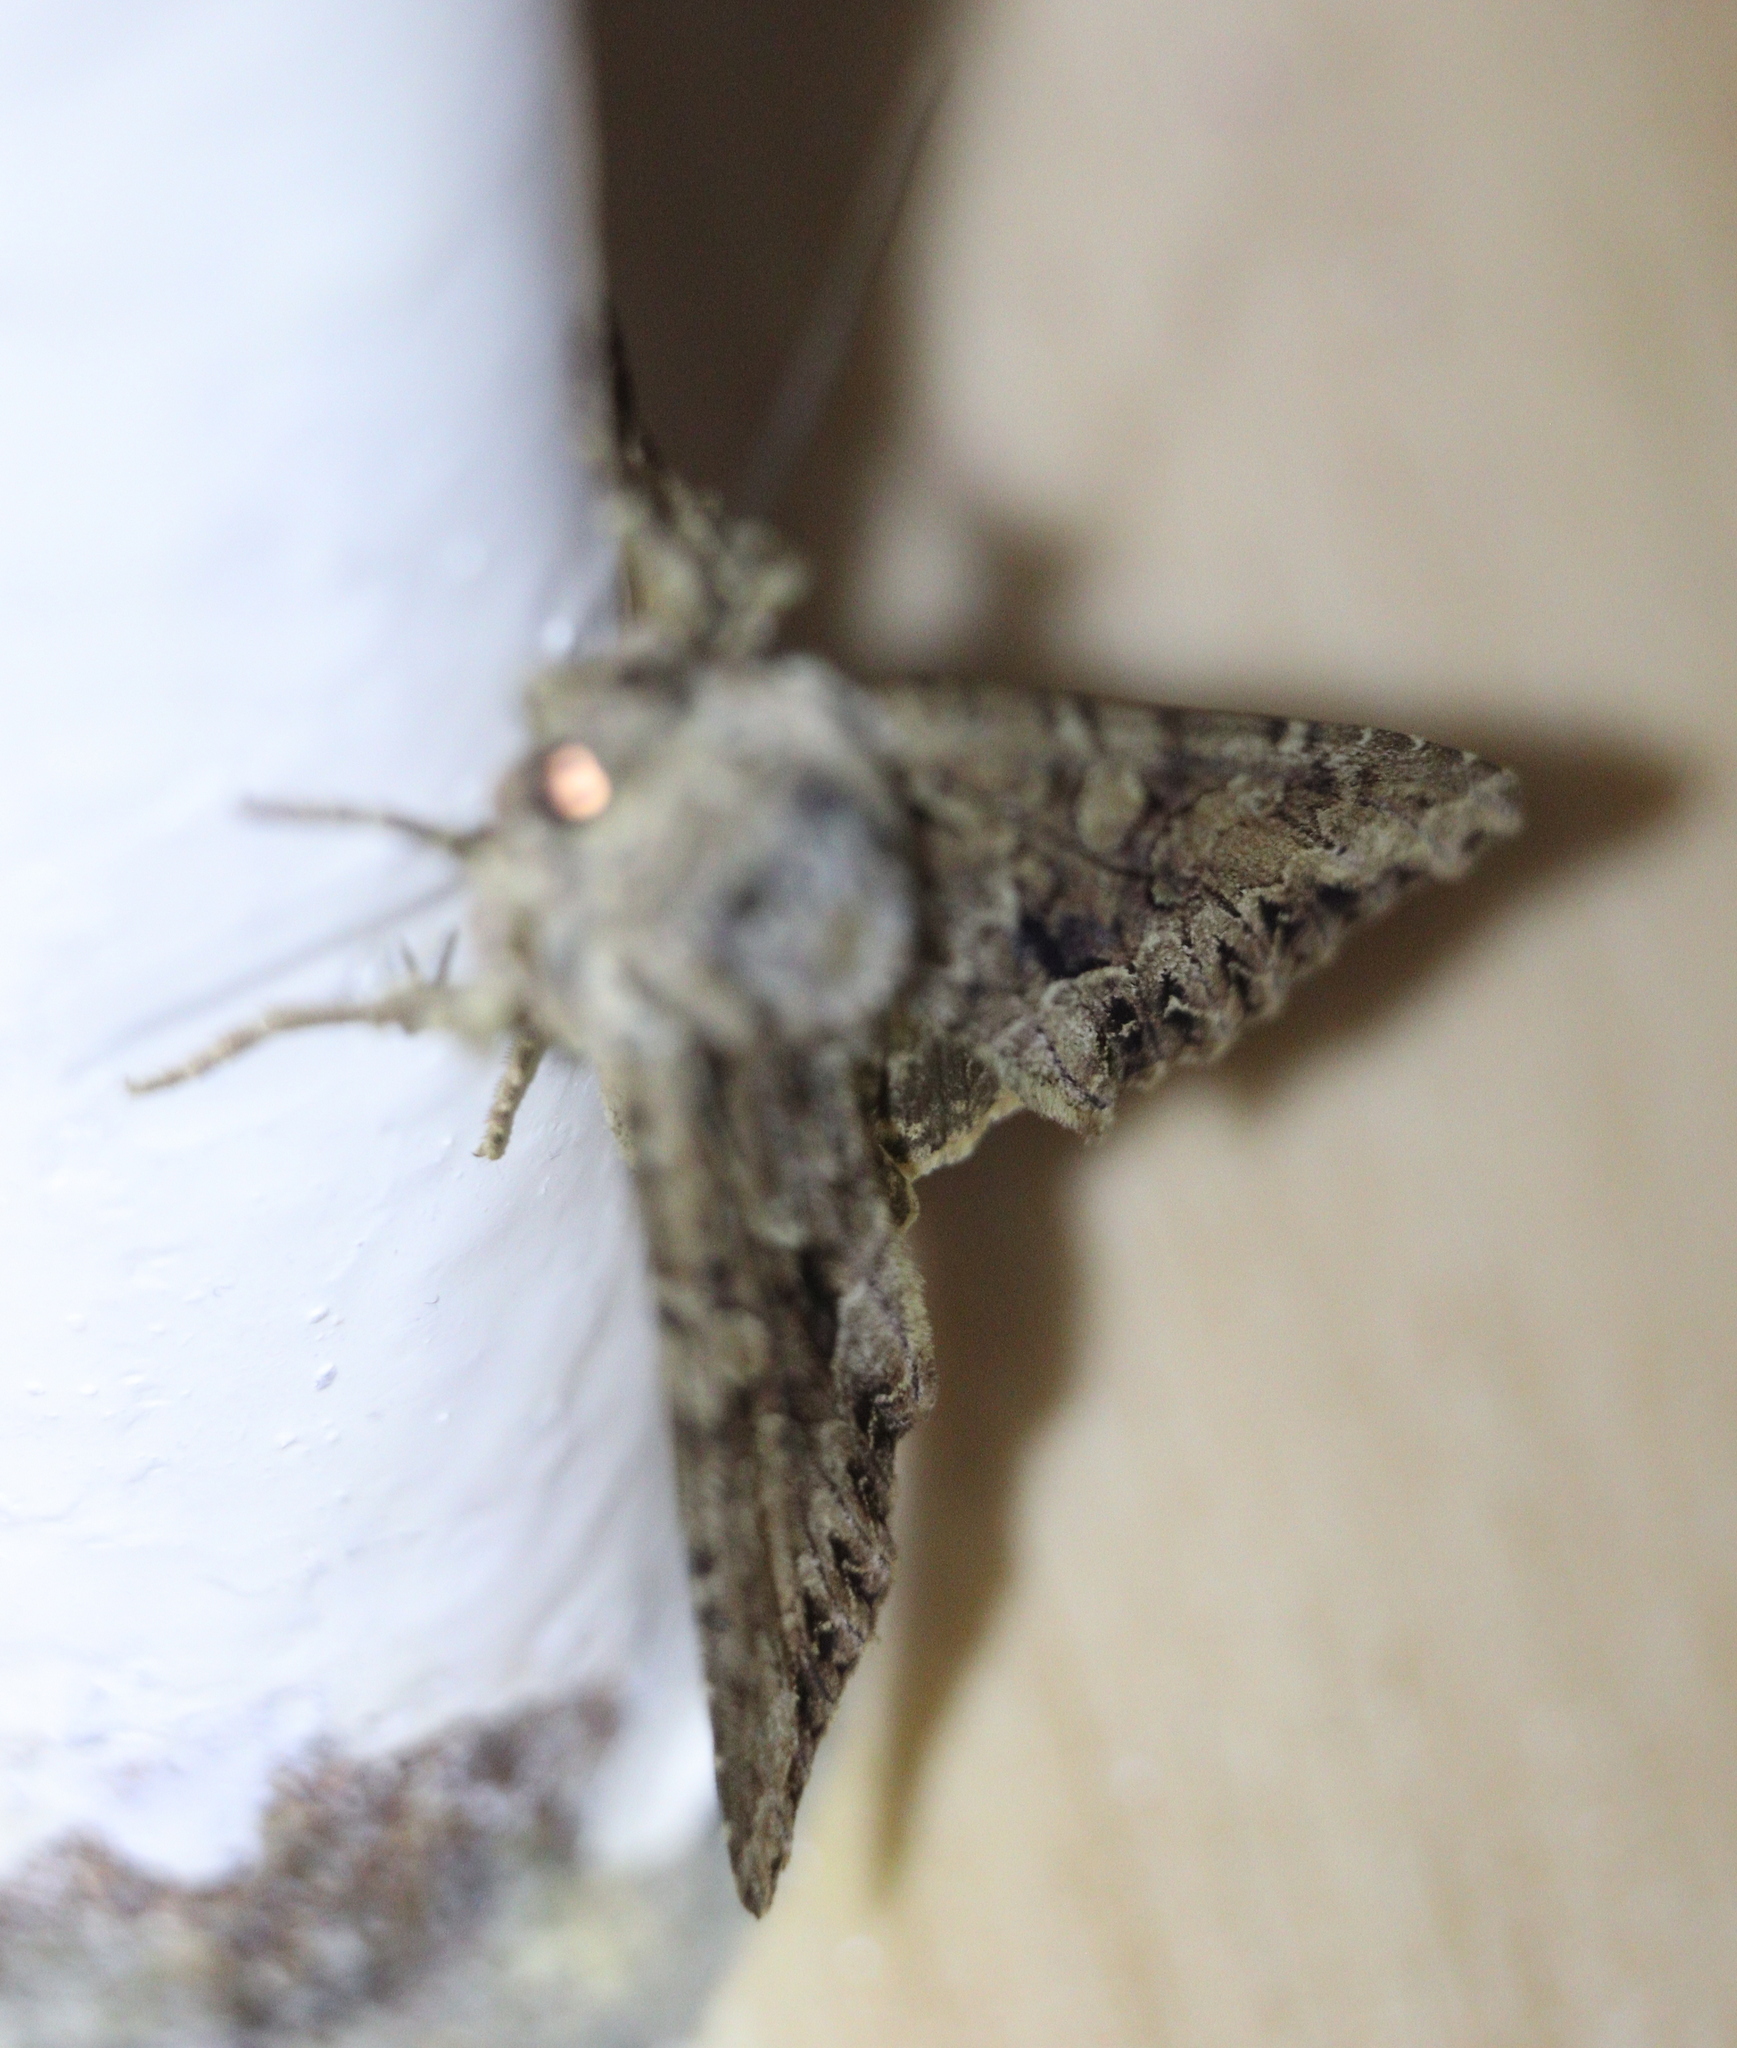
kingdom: Animalia
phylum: Arthropoda
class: Insecta
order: Lepidoptera
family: Noctuidae
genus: Apamea
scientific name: Apamea monoglypha
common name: Dark arches
